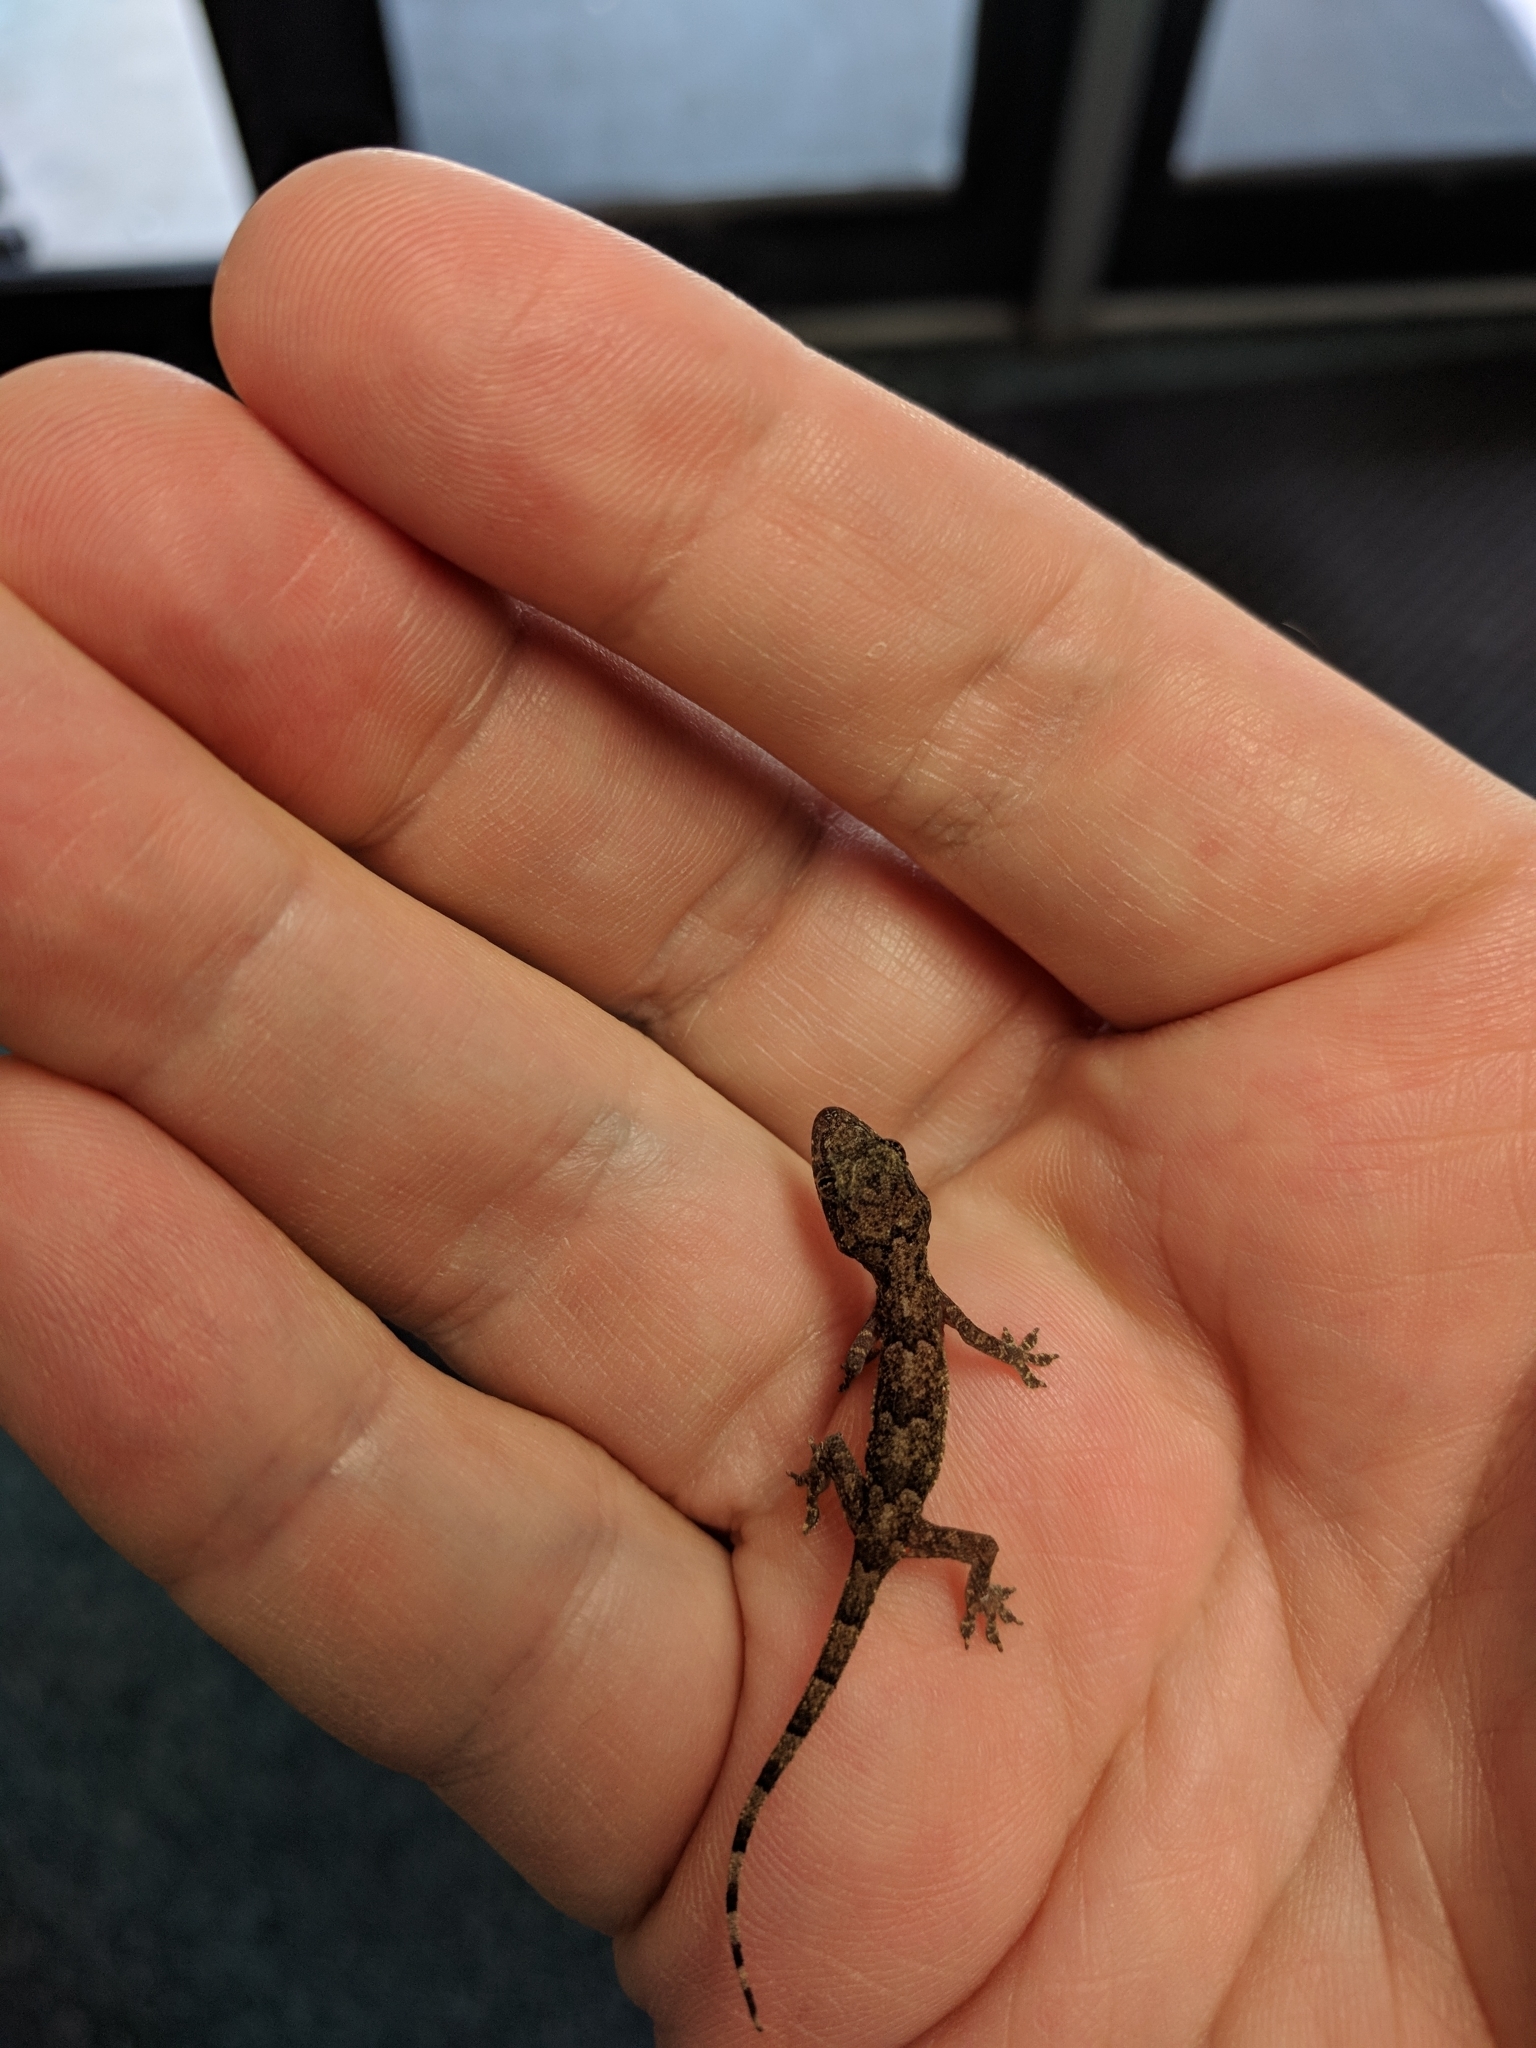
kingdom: Animalia
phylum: Chordata
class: Squamata
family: Gekkonidae
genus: Hemidactylus
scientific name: Hemidactylus mabouia
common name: House gecko
